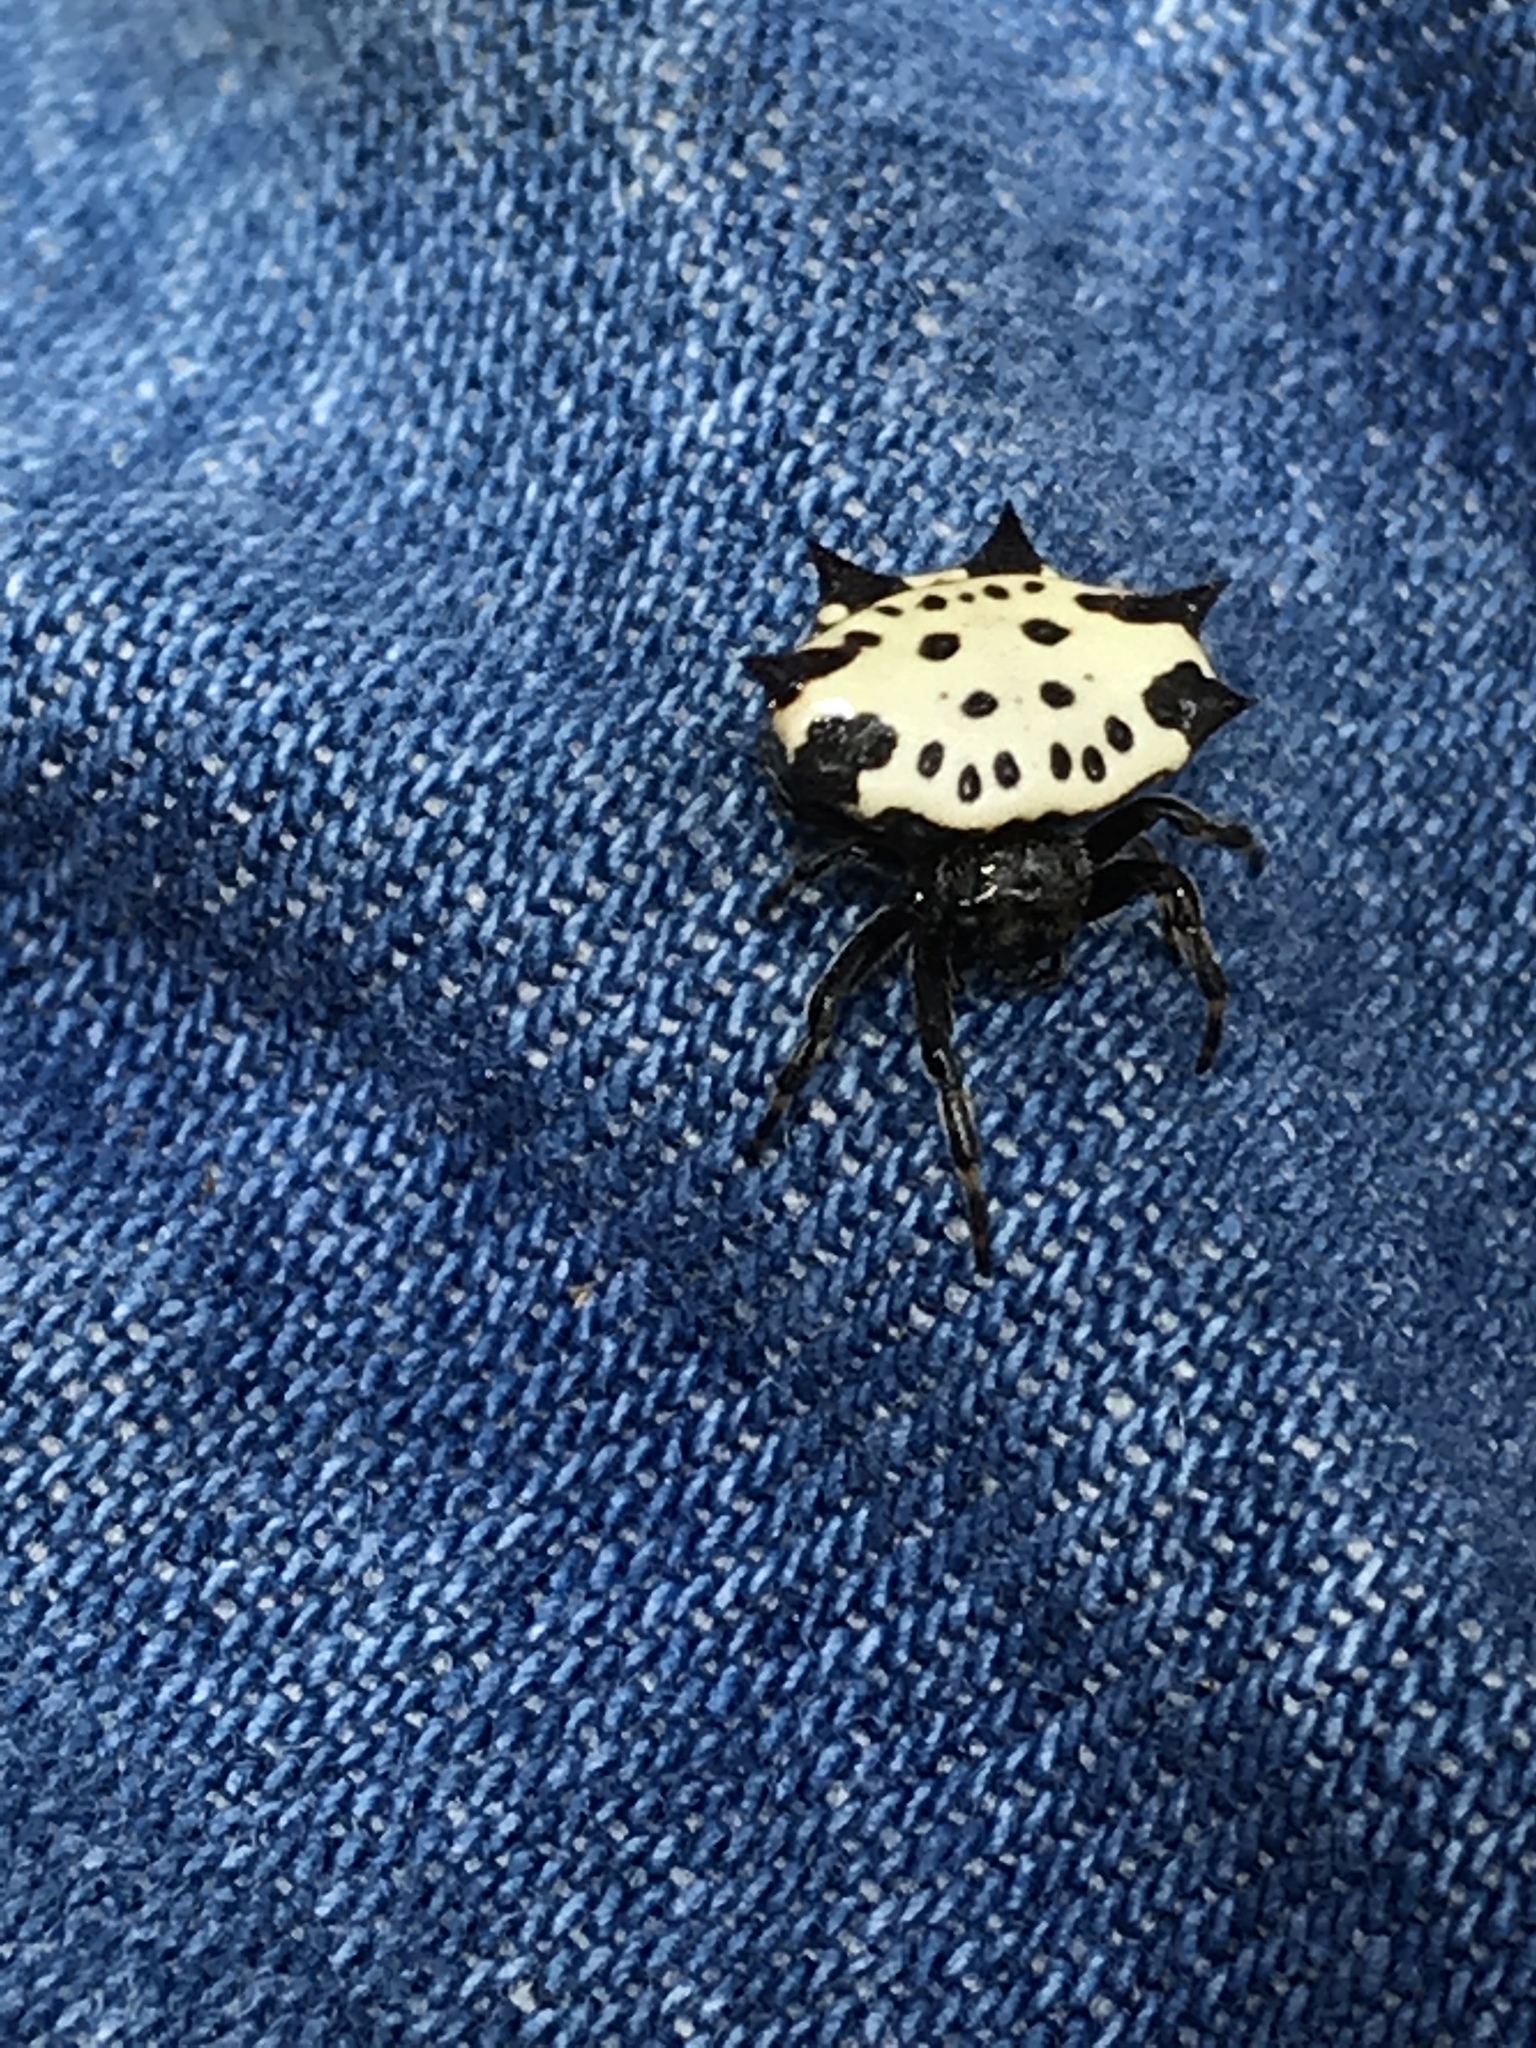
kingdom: Animalia
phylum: Arthropoda
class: Arachnida
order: Araneae
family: Araneidae
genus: Gasteracantha
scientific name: Gasteracantha cancriformis
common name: Orb weavers
